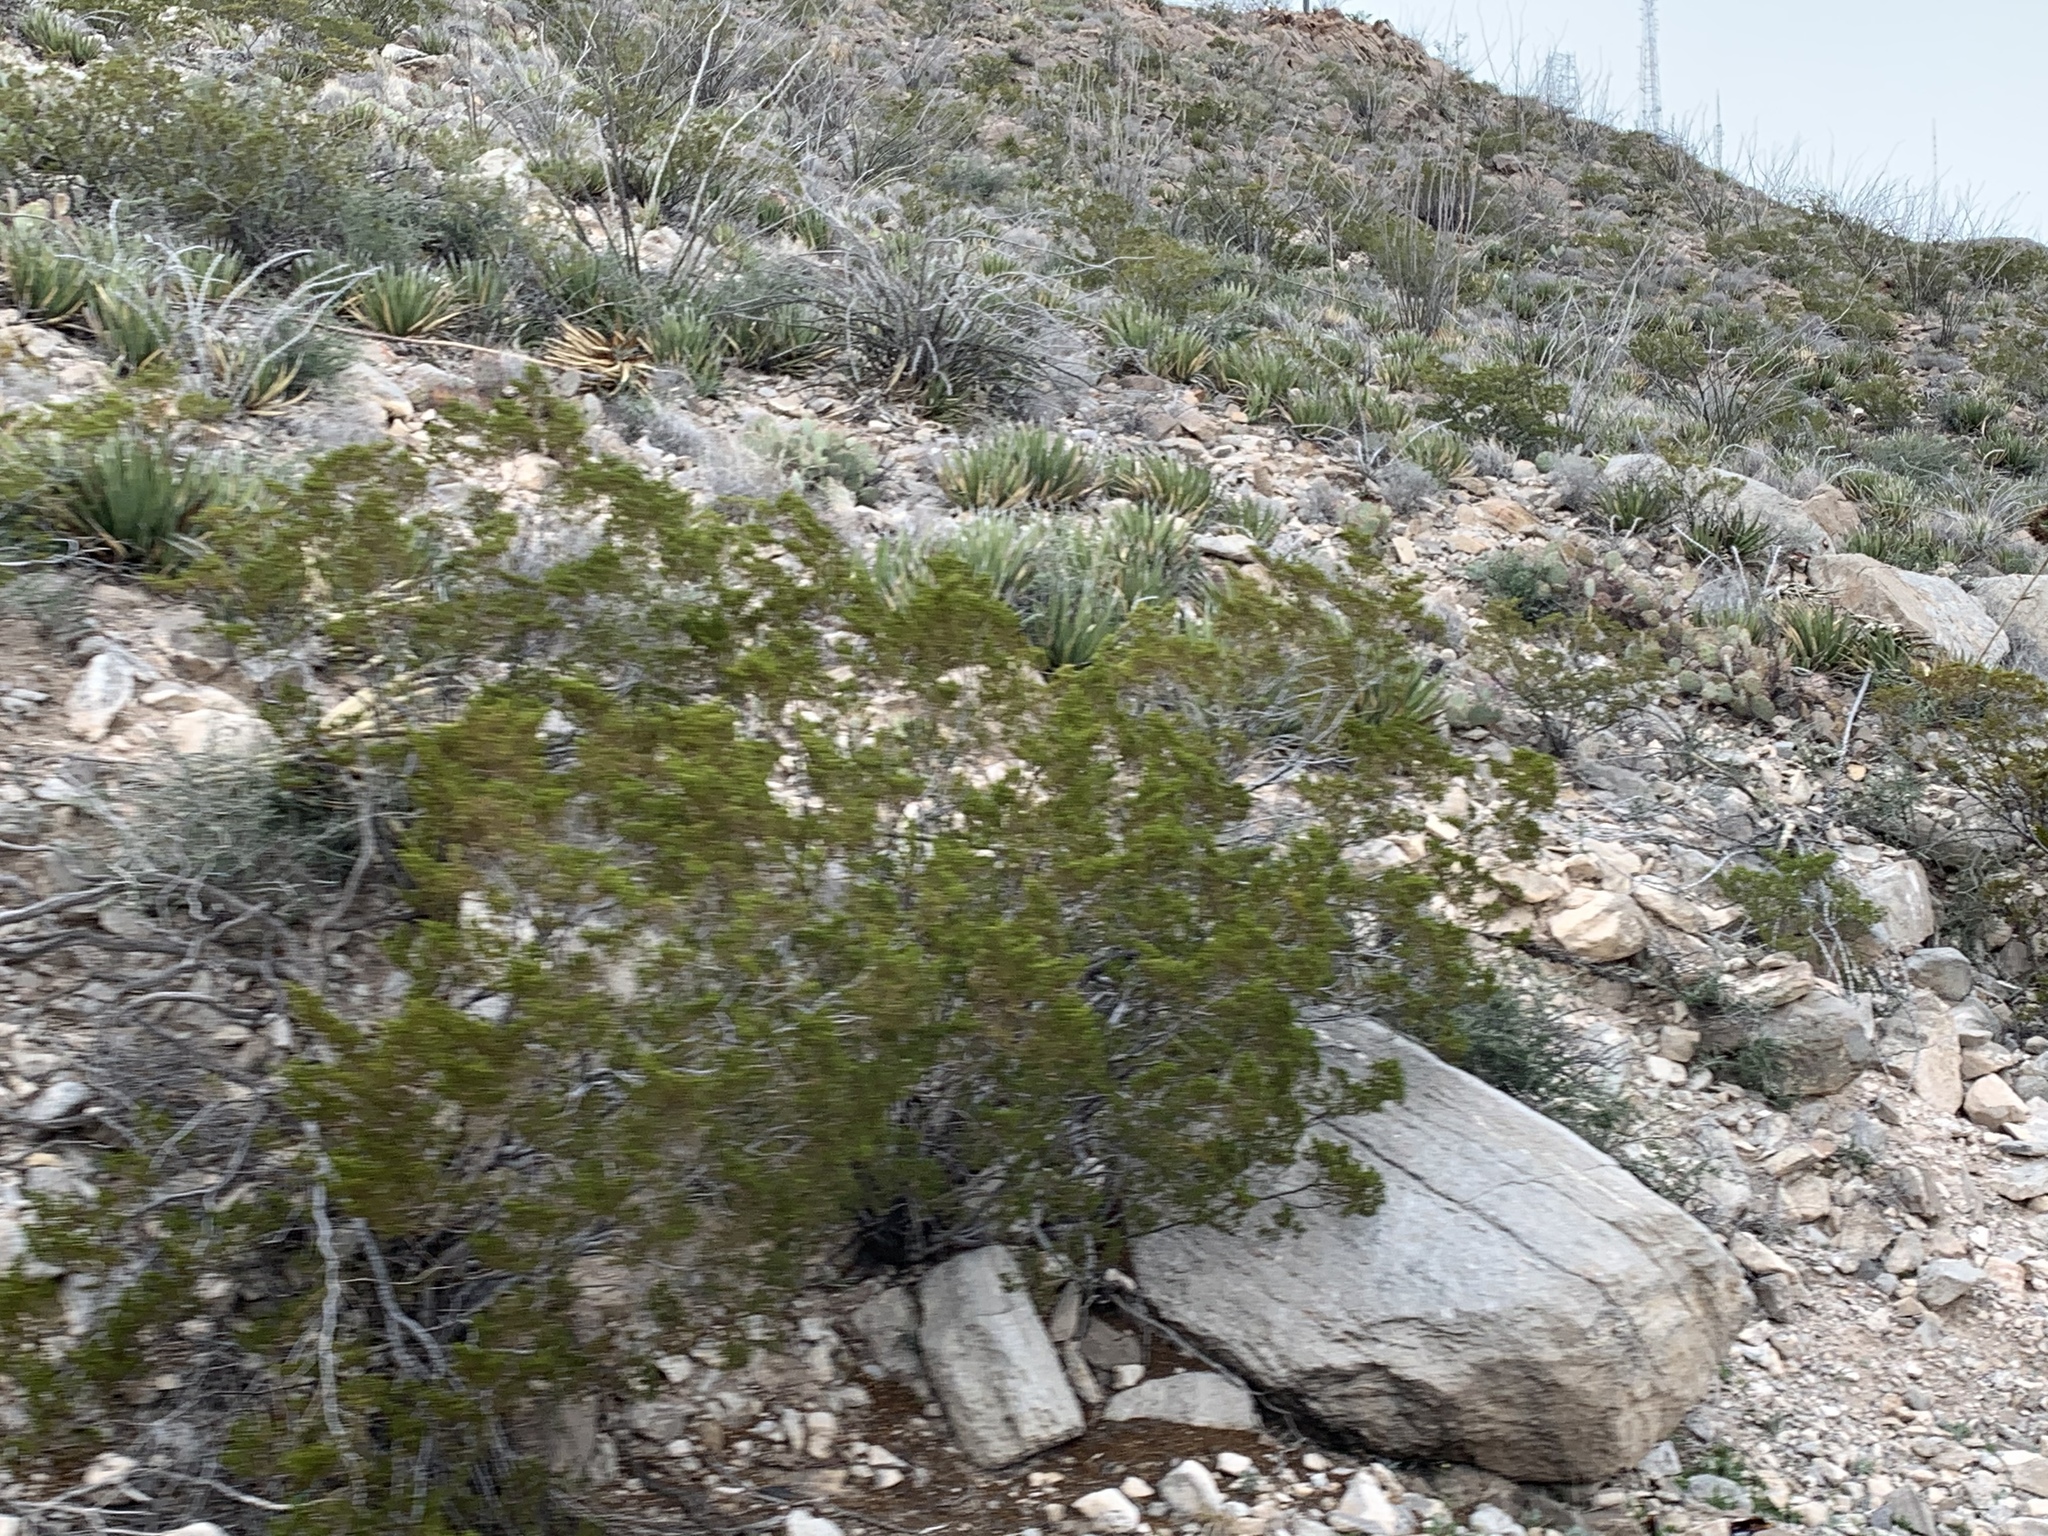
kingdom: Plantae
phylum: Tracheophyta
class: Magnoliopsida
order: Zygophyllales
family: Zygophyllaceae
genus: Larrea
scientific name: Larrea tridentata
